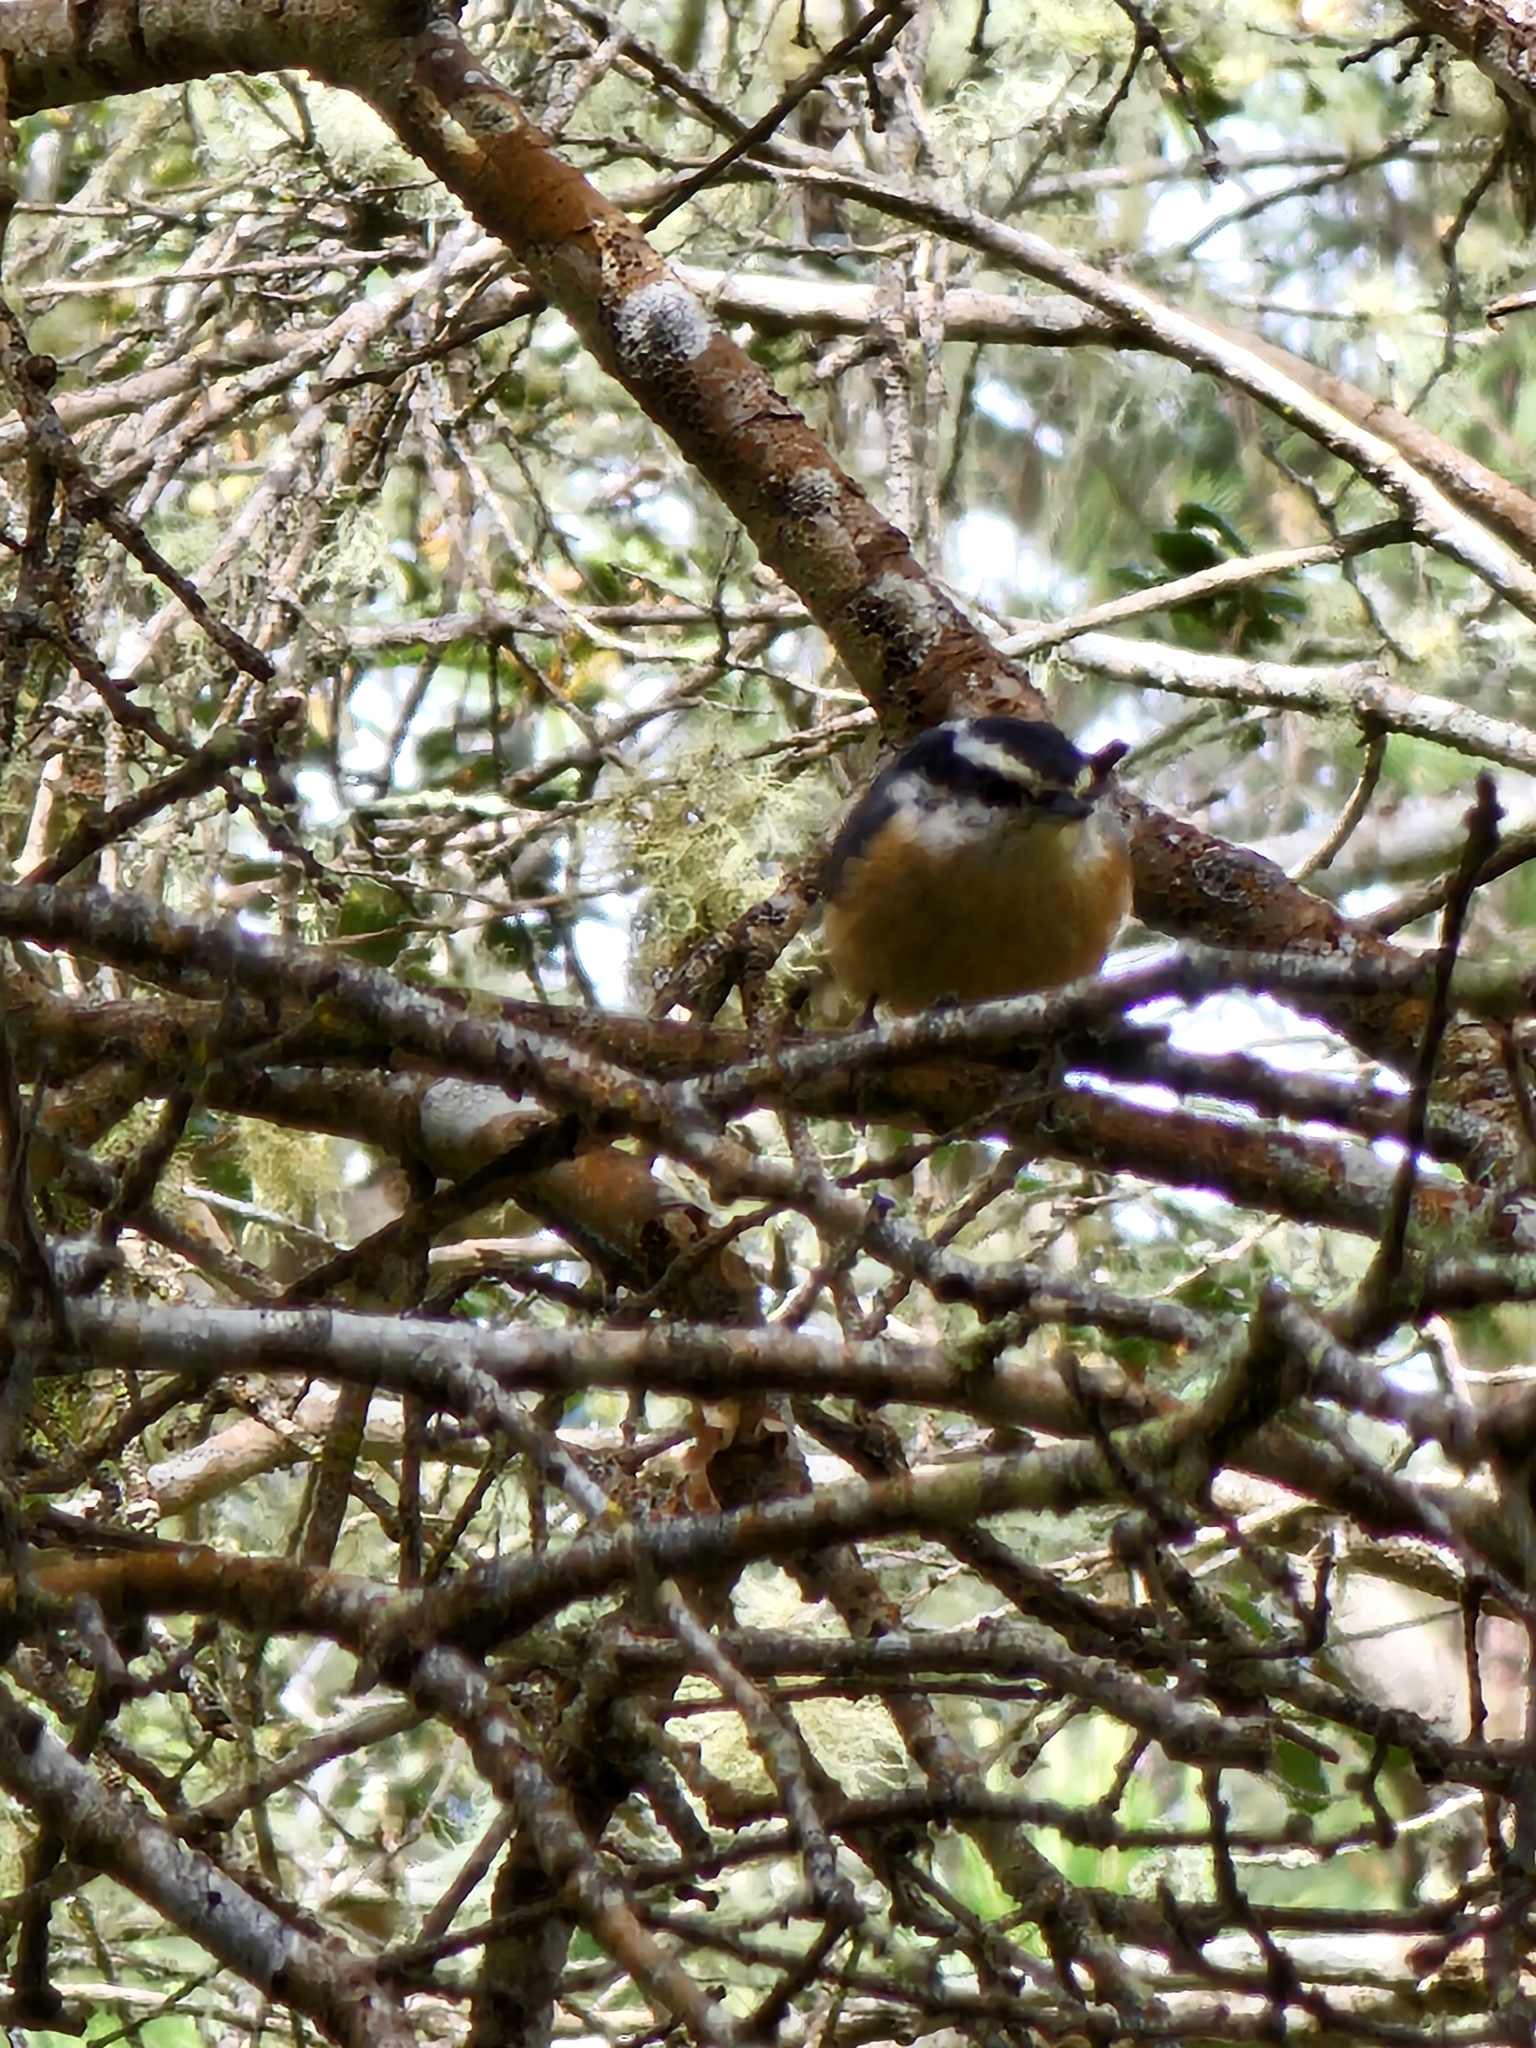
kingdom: Animalia
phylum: Chordata
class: Aves
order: Passeriformes
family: Sittidae
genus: Sitta
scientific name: Sitta canadensis
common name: Red-breasted nuthatch
